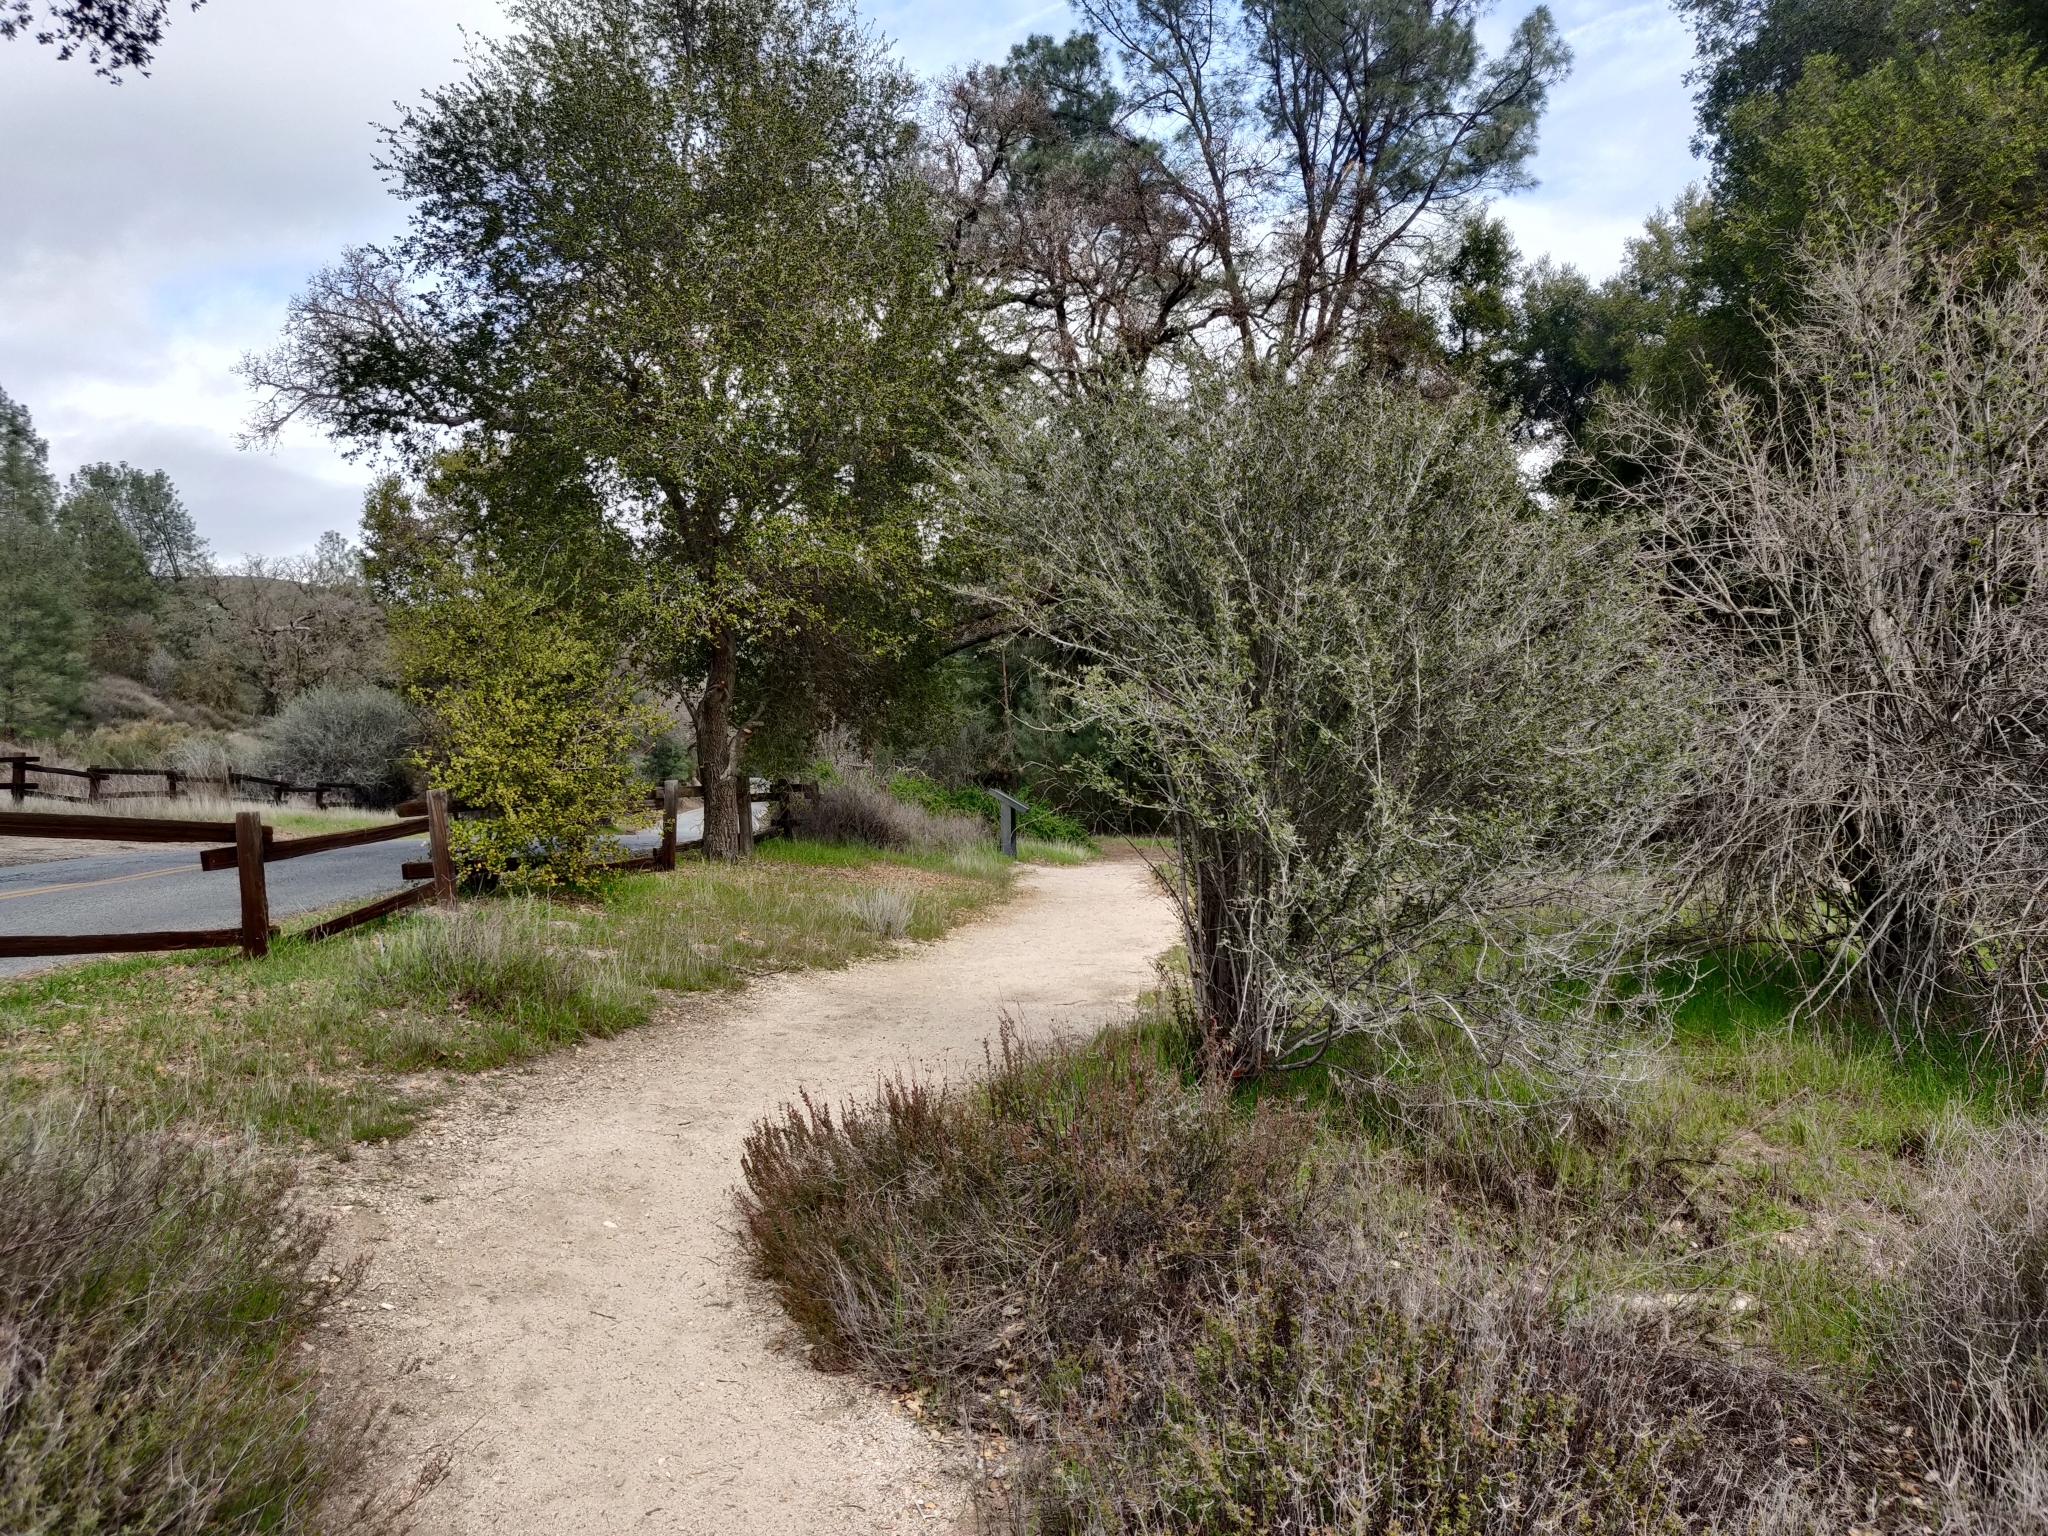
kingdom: Plantae
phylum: Tracheophyta
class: Magnoliopsida
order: Rosales
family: Rhamnaceae
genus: Ceanothus
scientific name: Ceanothus cuneatus
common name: Cuneate ceanothus
